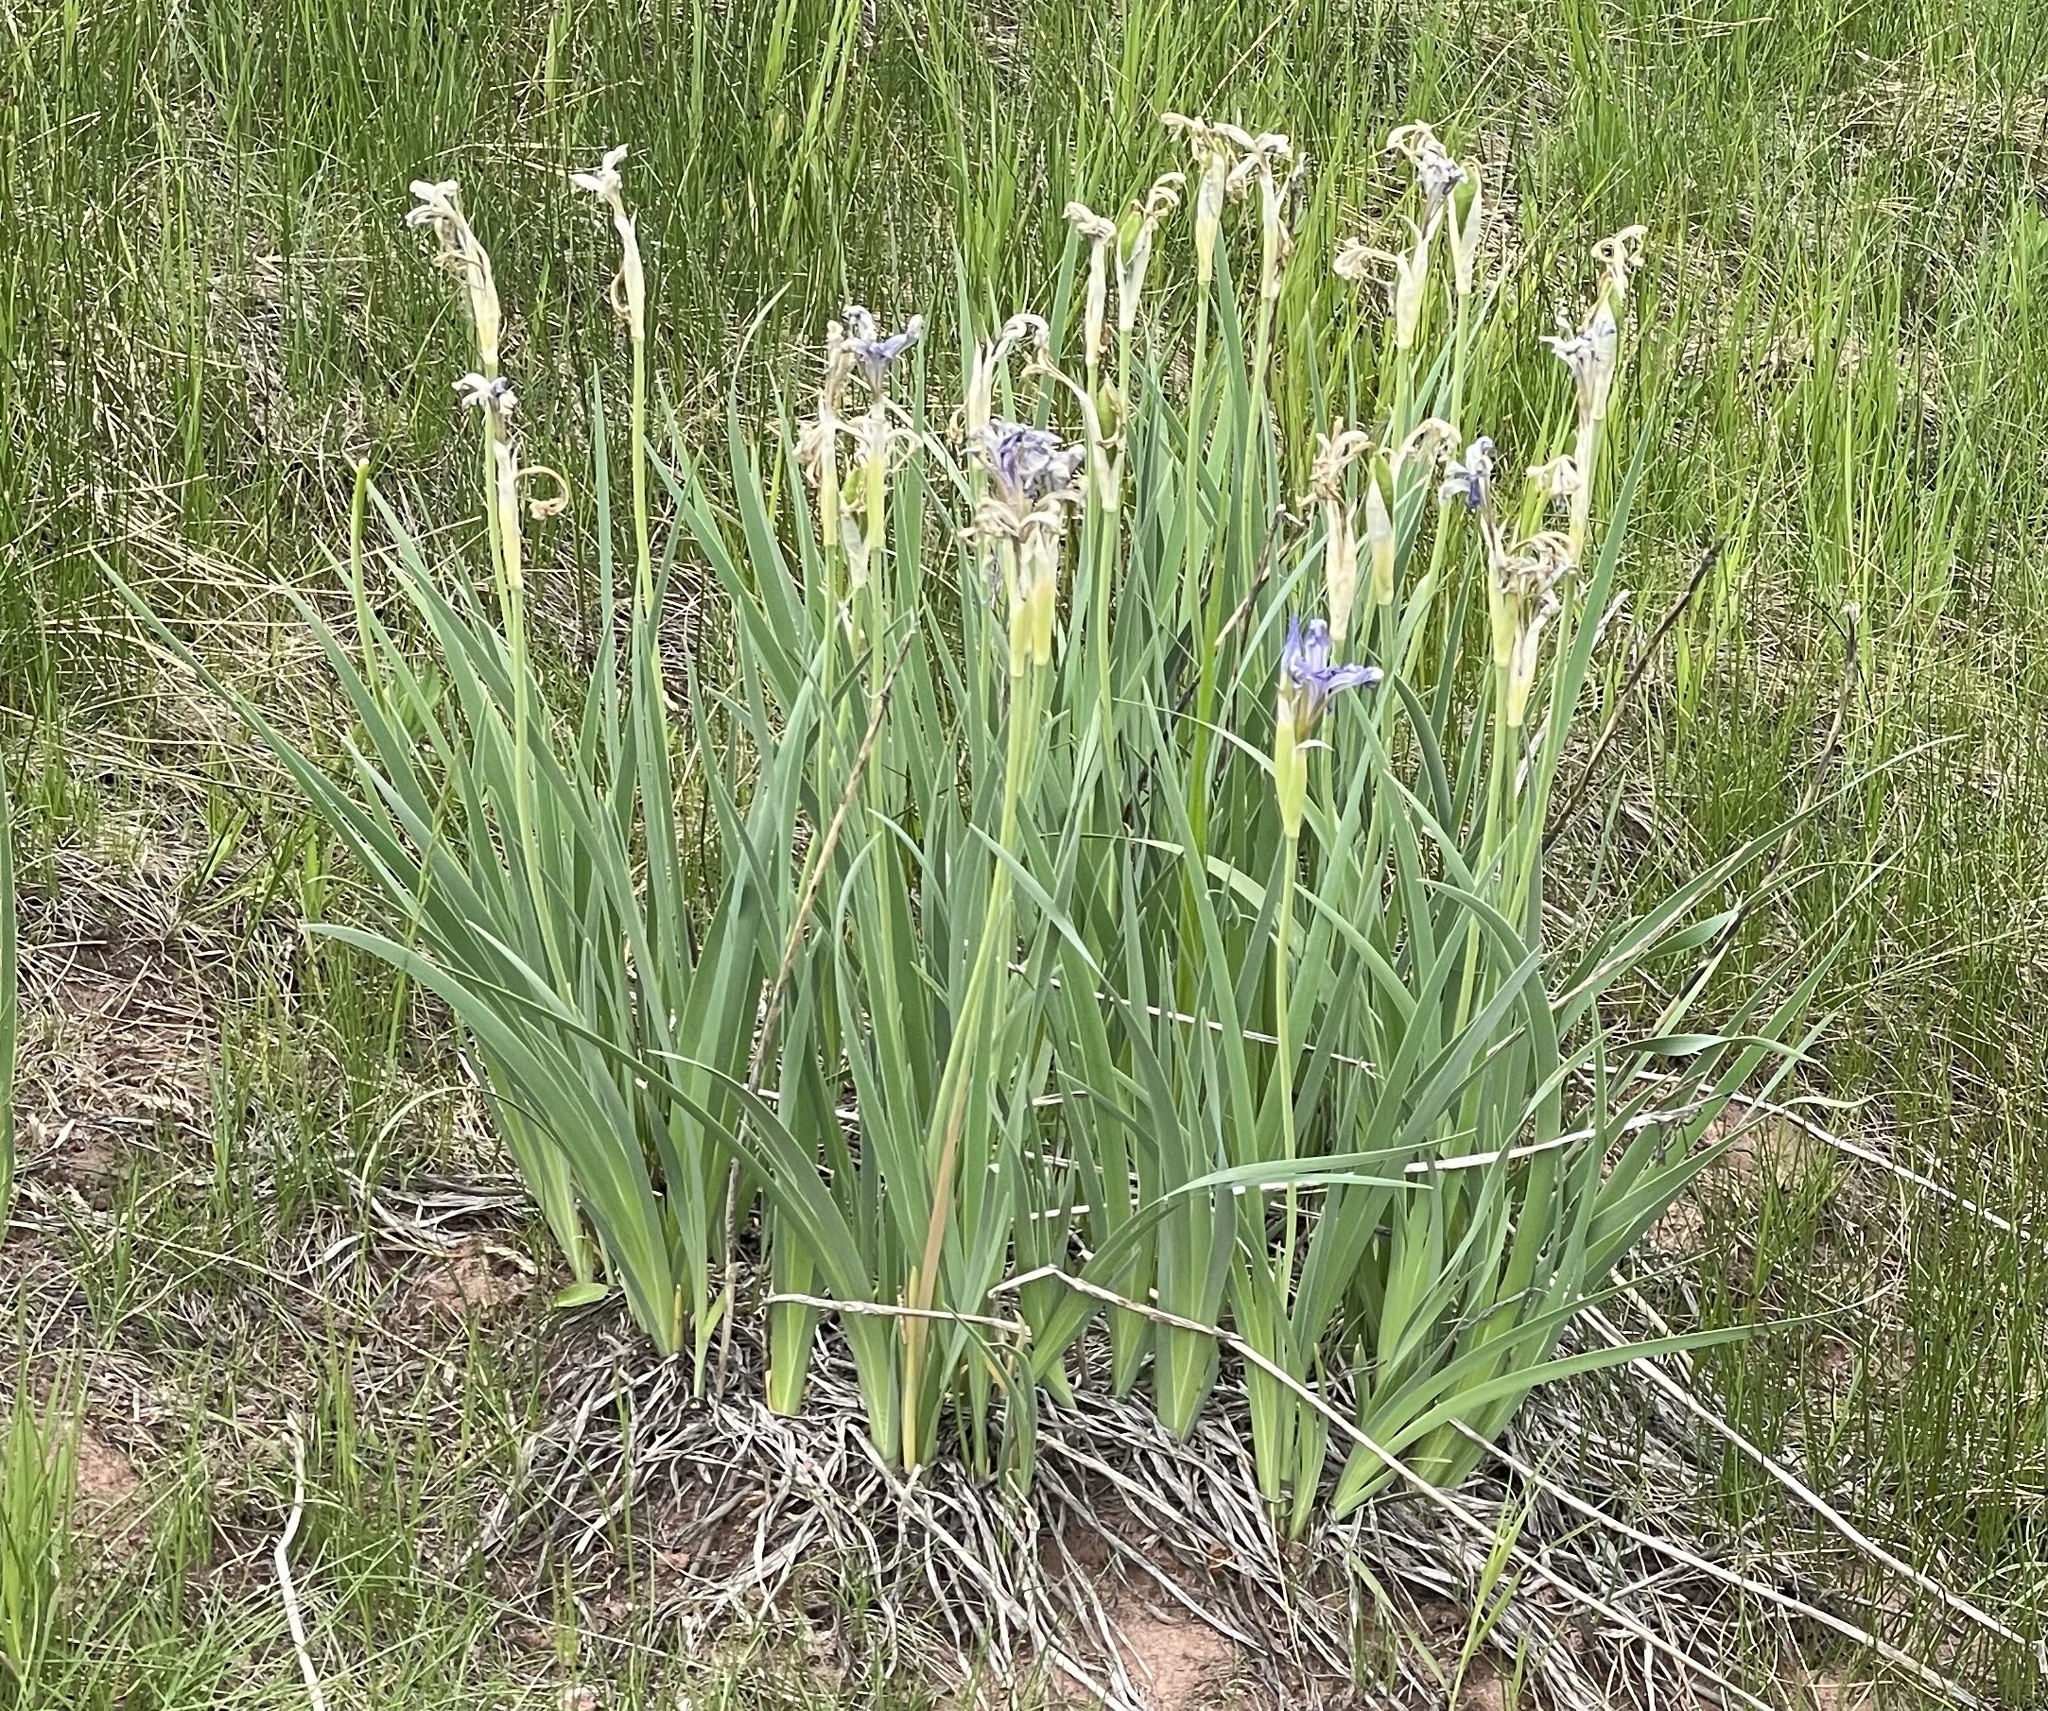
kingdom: Plantae
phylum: Tracheophyta
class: Liliopsida
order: Asparagales
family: Iridaceae
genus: Iris
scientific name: Iris missouriensis
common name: Rocky mountain iris
